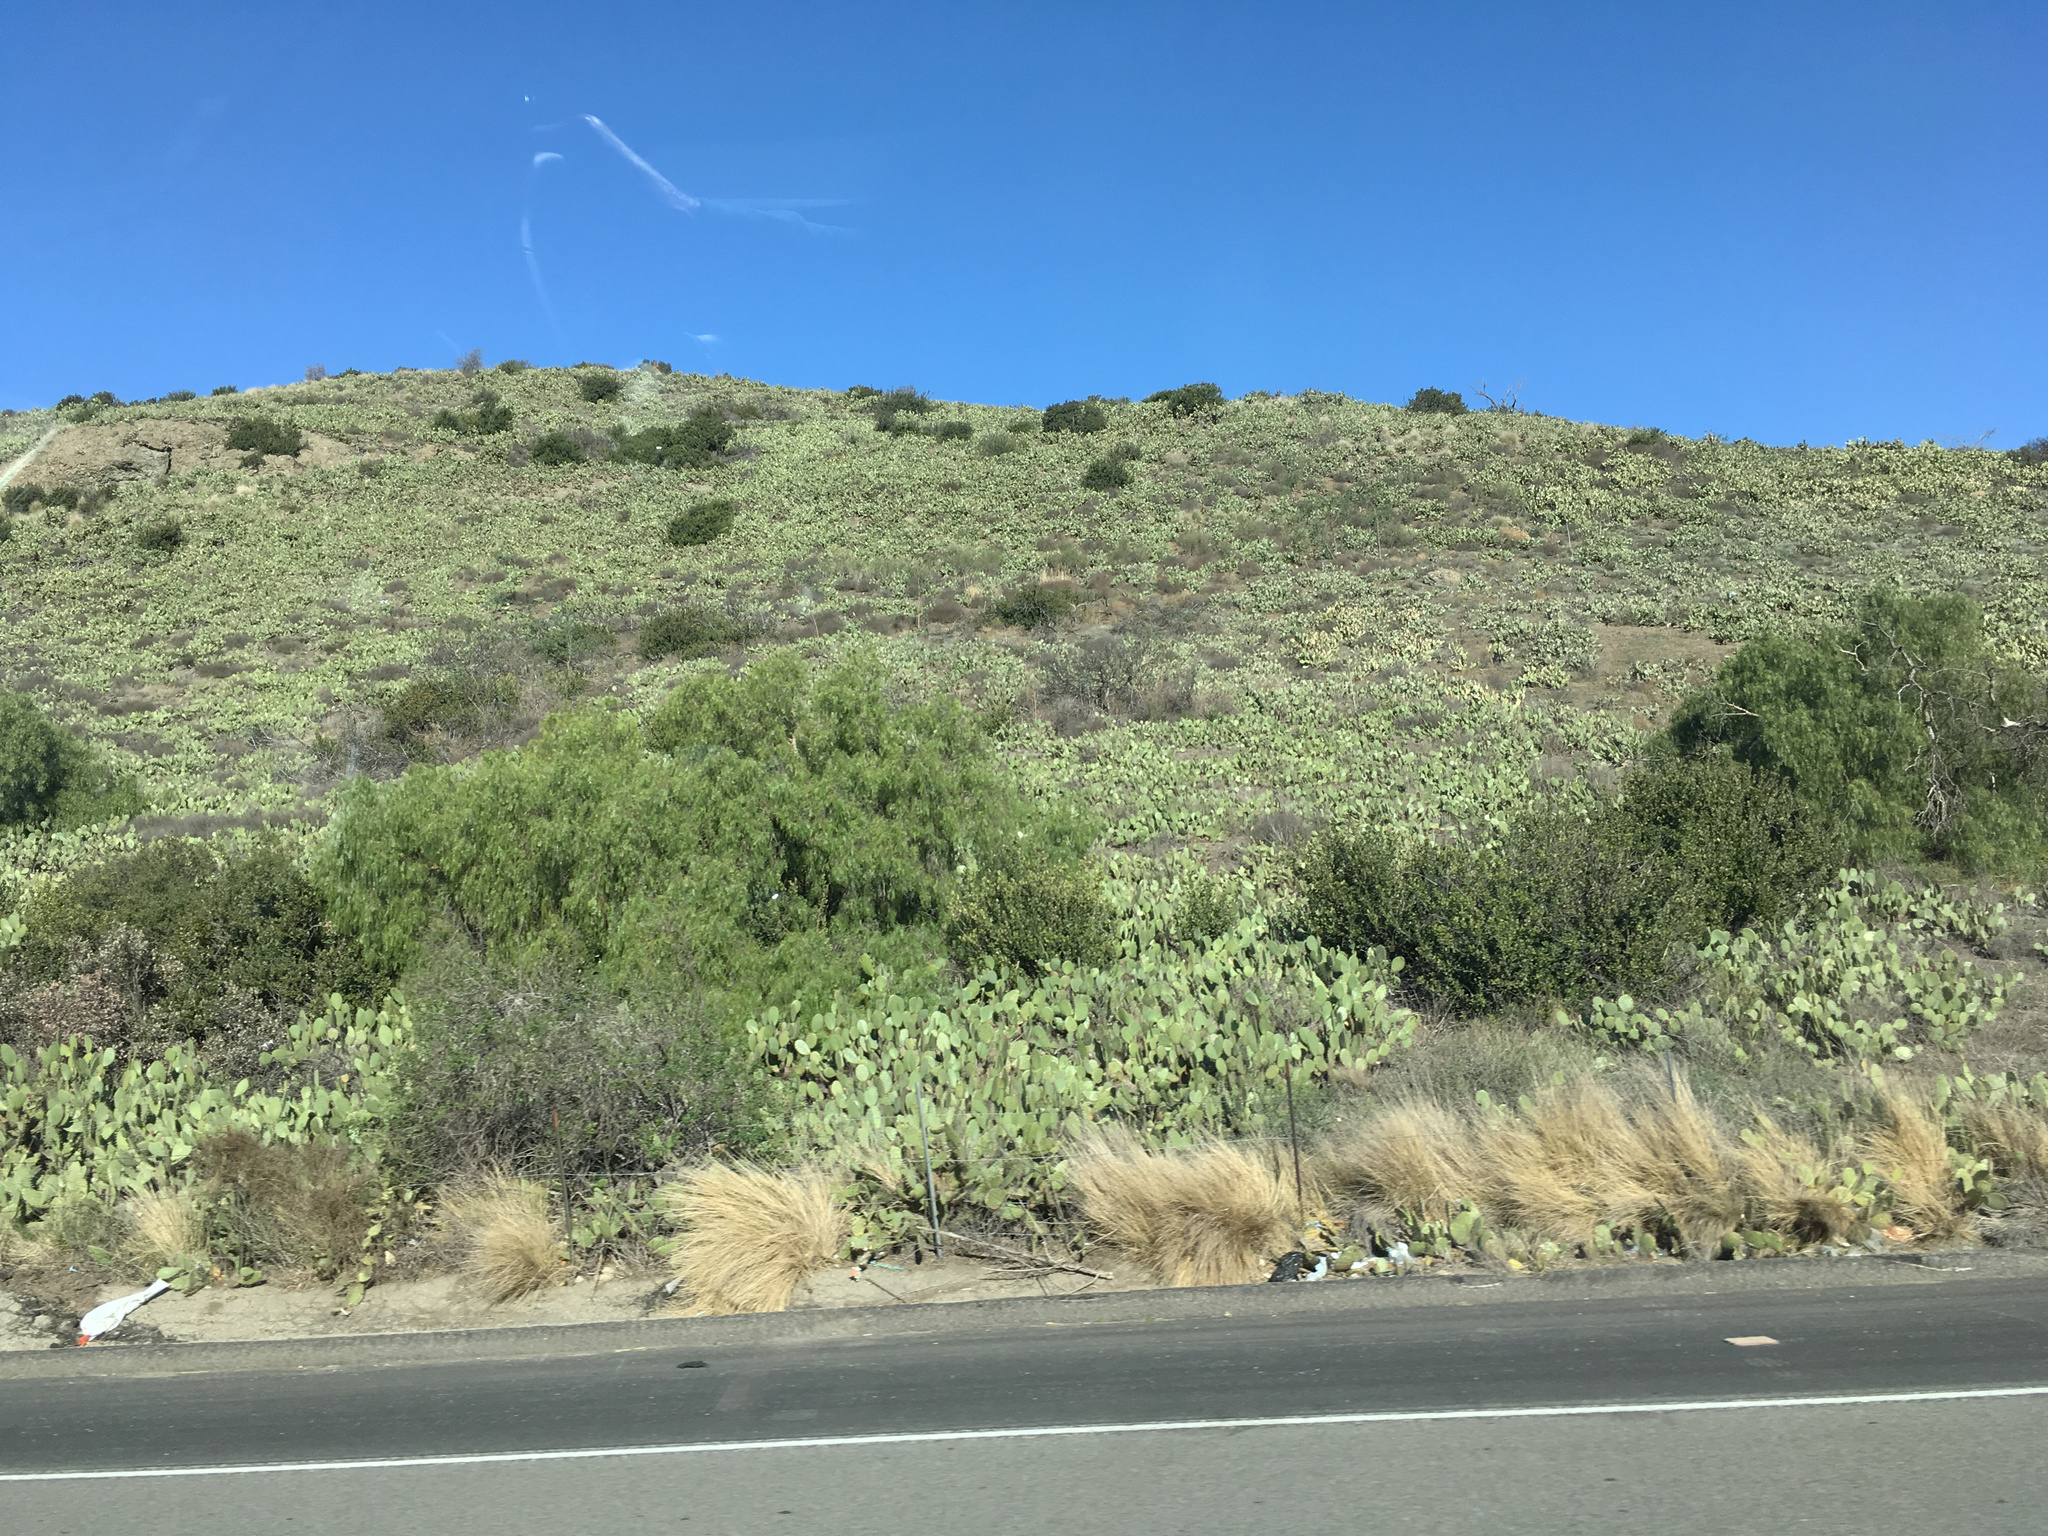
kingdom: Plantae
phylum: Tracheophyta
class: Magnoliopsida
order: Caryophyllales
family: Cactaceae
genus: Opuntia
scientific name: Opuntia littoralis
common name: Coastal prickly-pear
